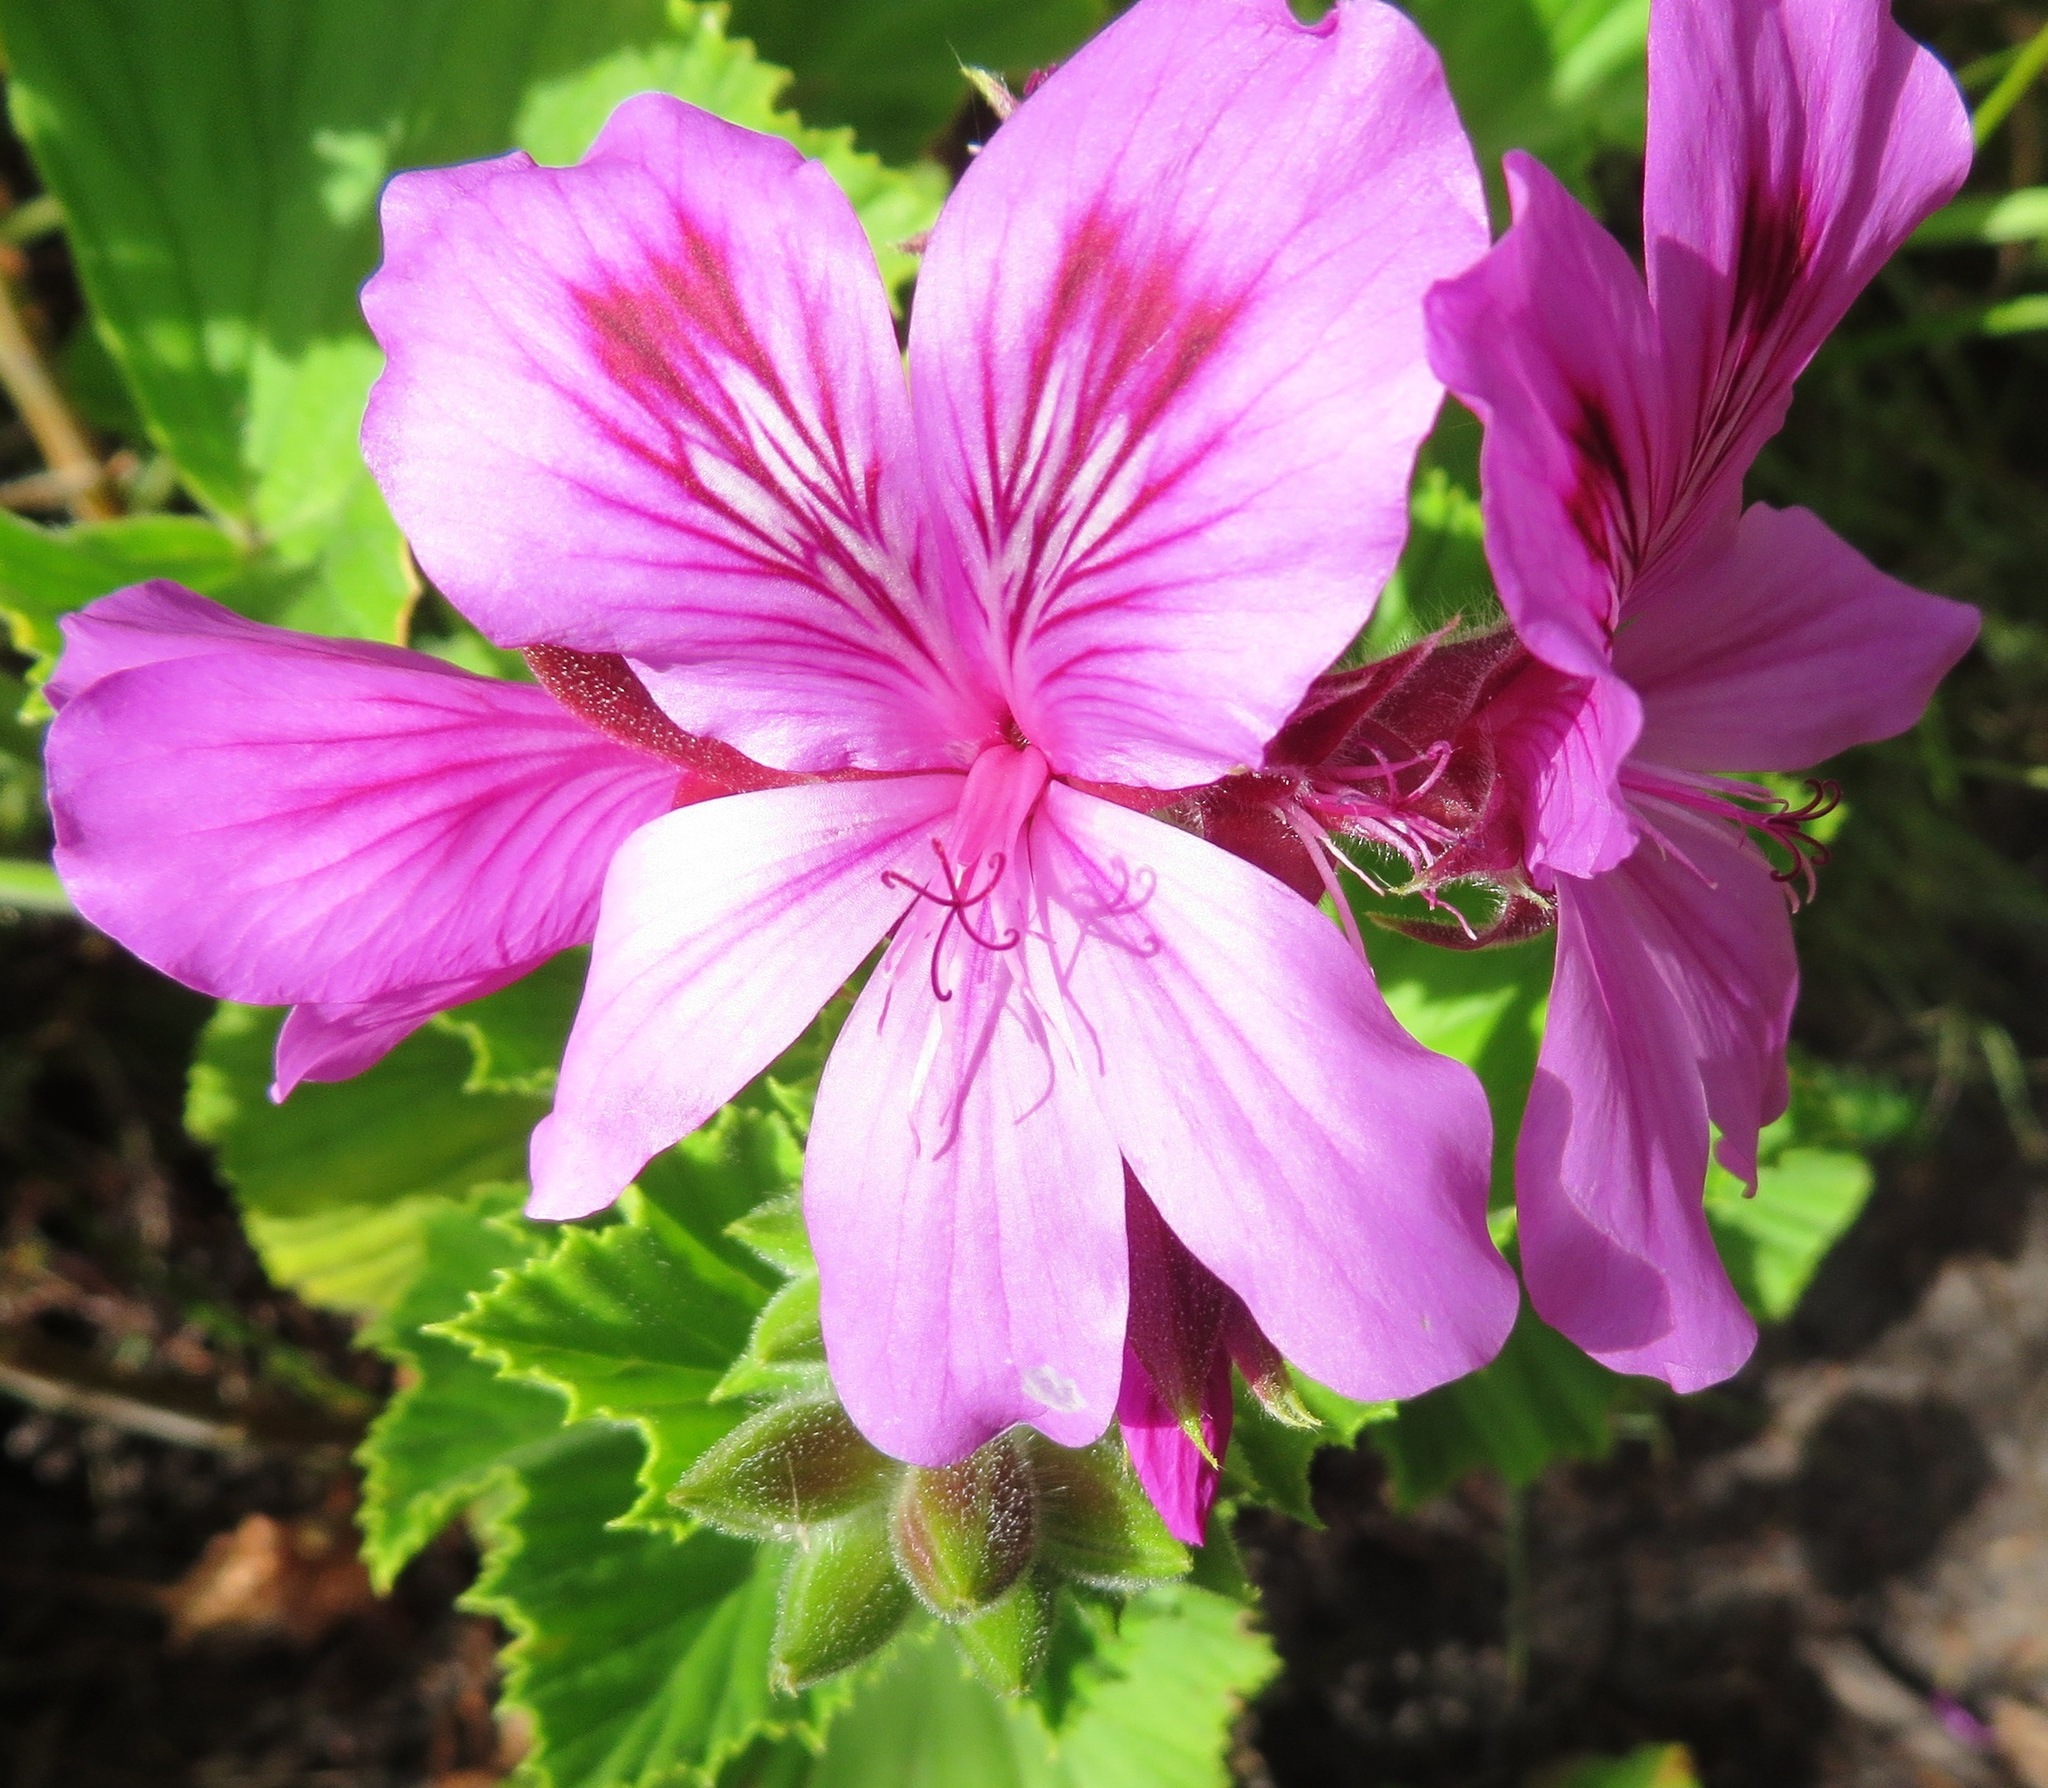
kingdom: Plantae
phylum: Tracheophyta
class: Magnoliopsida
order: Geraniales
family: Geraniaceae
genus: Pelargonium
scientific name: Pelargonium cucullatum
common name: Tree pelargonium
